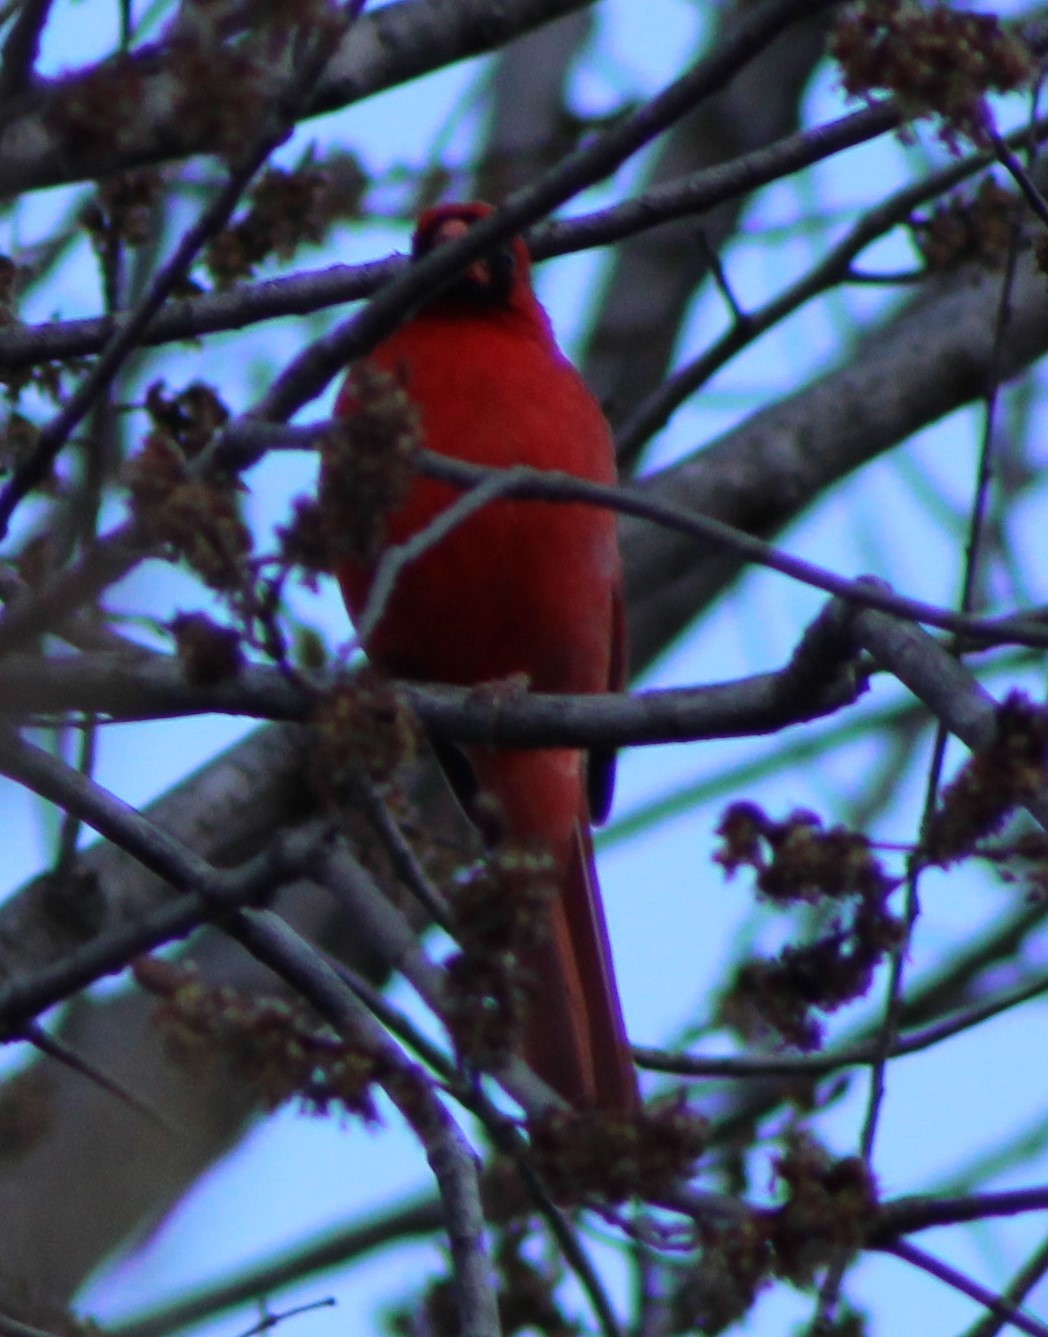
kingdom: Animalia
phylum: Chordata
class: Aves
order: Passeriformes
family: Cardinalidae
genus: Cardinalis
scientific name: Cardinalis cardinalis
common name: Northern cardinal
